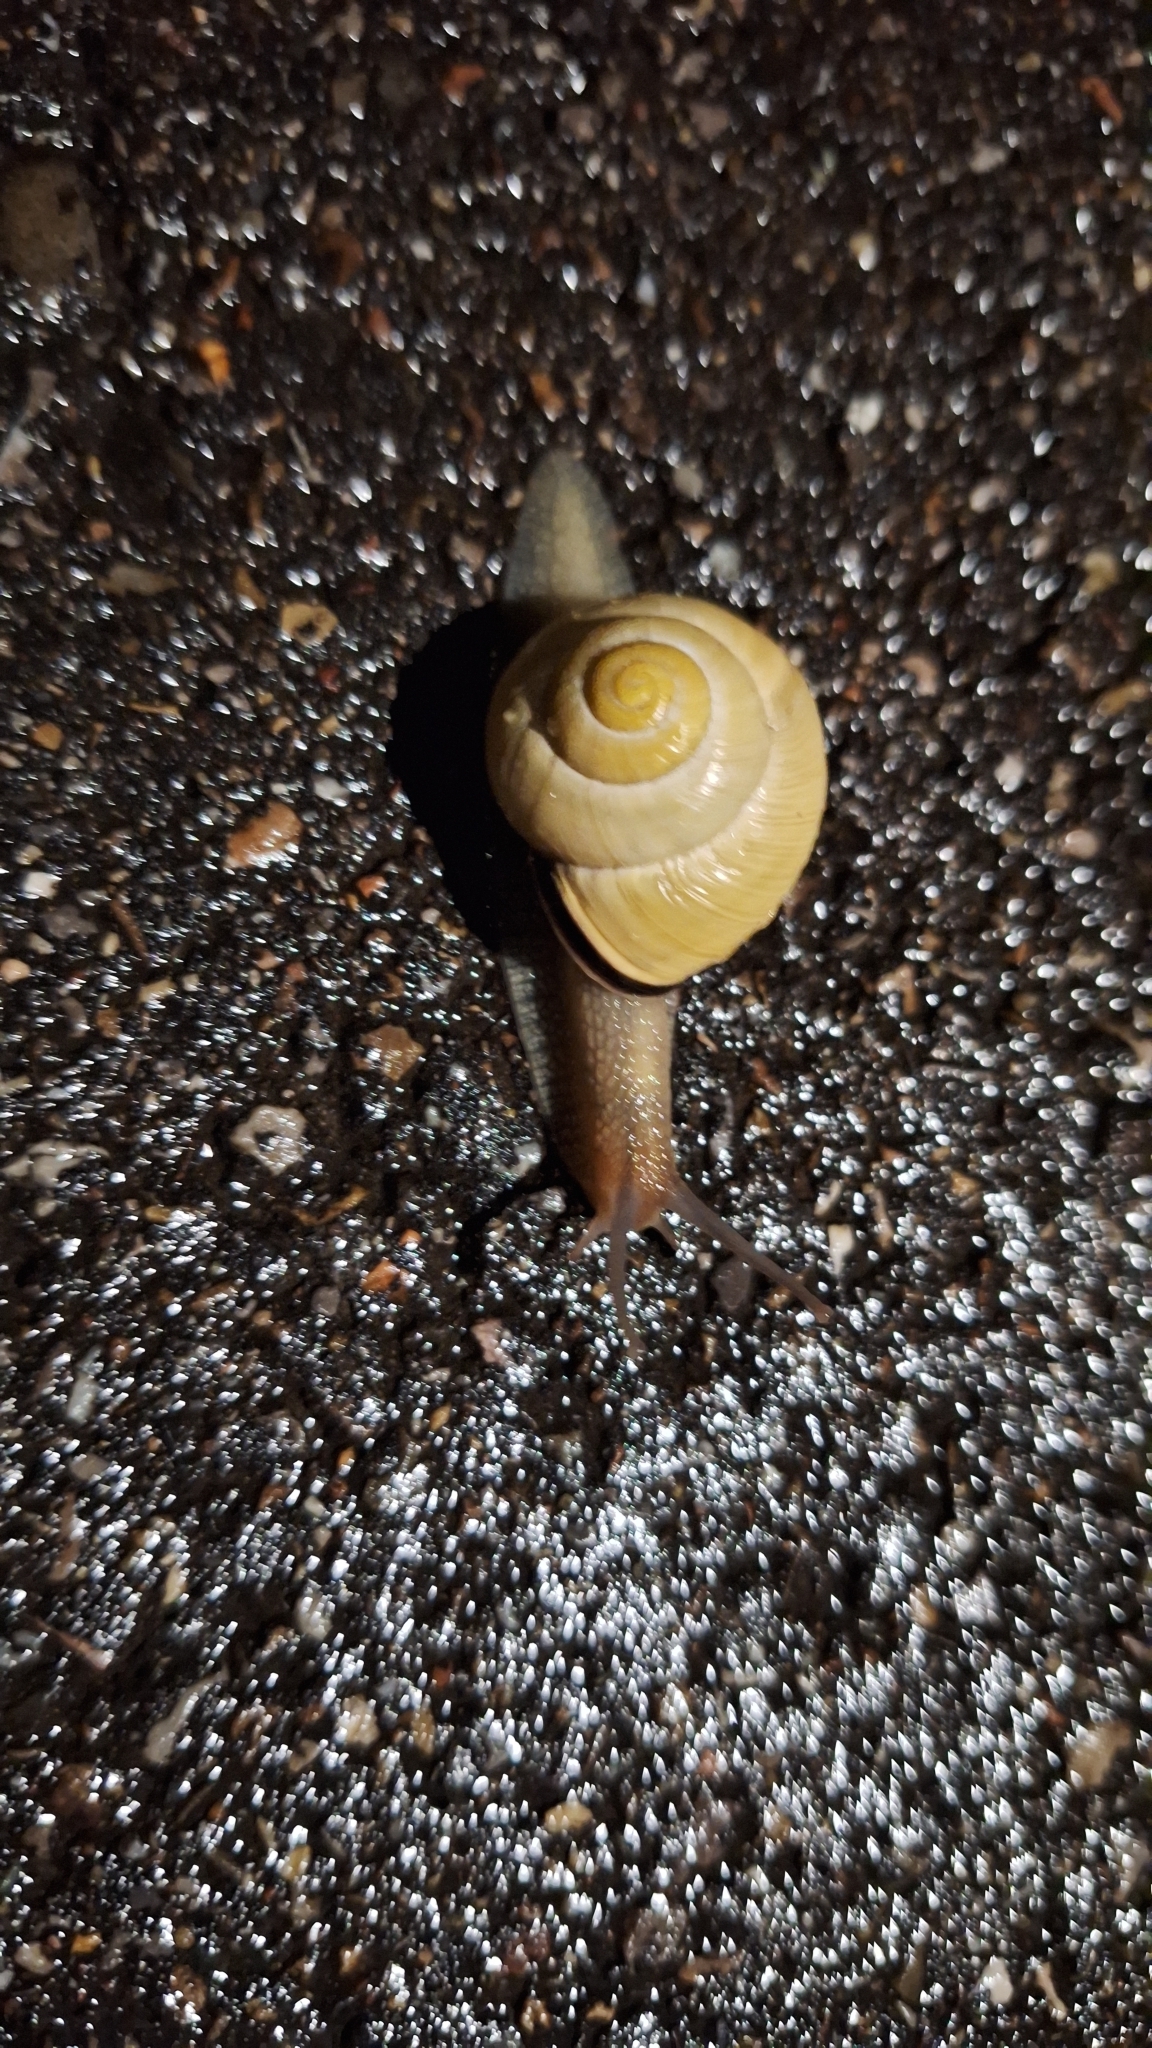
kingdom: Animalia
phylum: Mollusca
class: Gastropoda
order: Stylommatophora
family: Helicidae
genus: Cepaea
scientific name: Cepaea nemoralis
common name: Grovesnail
